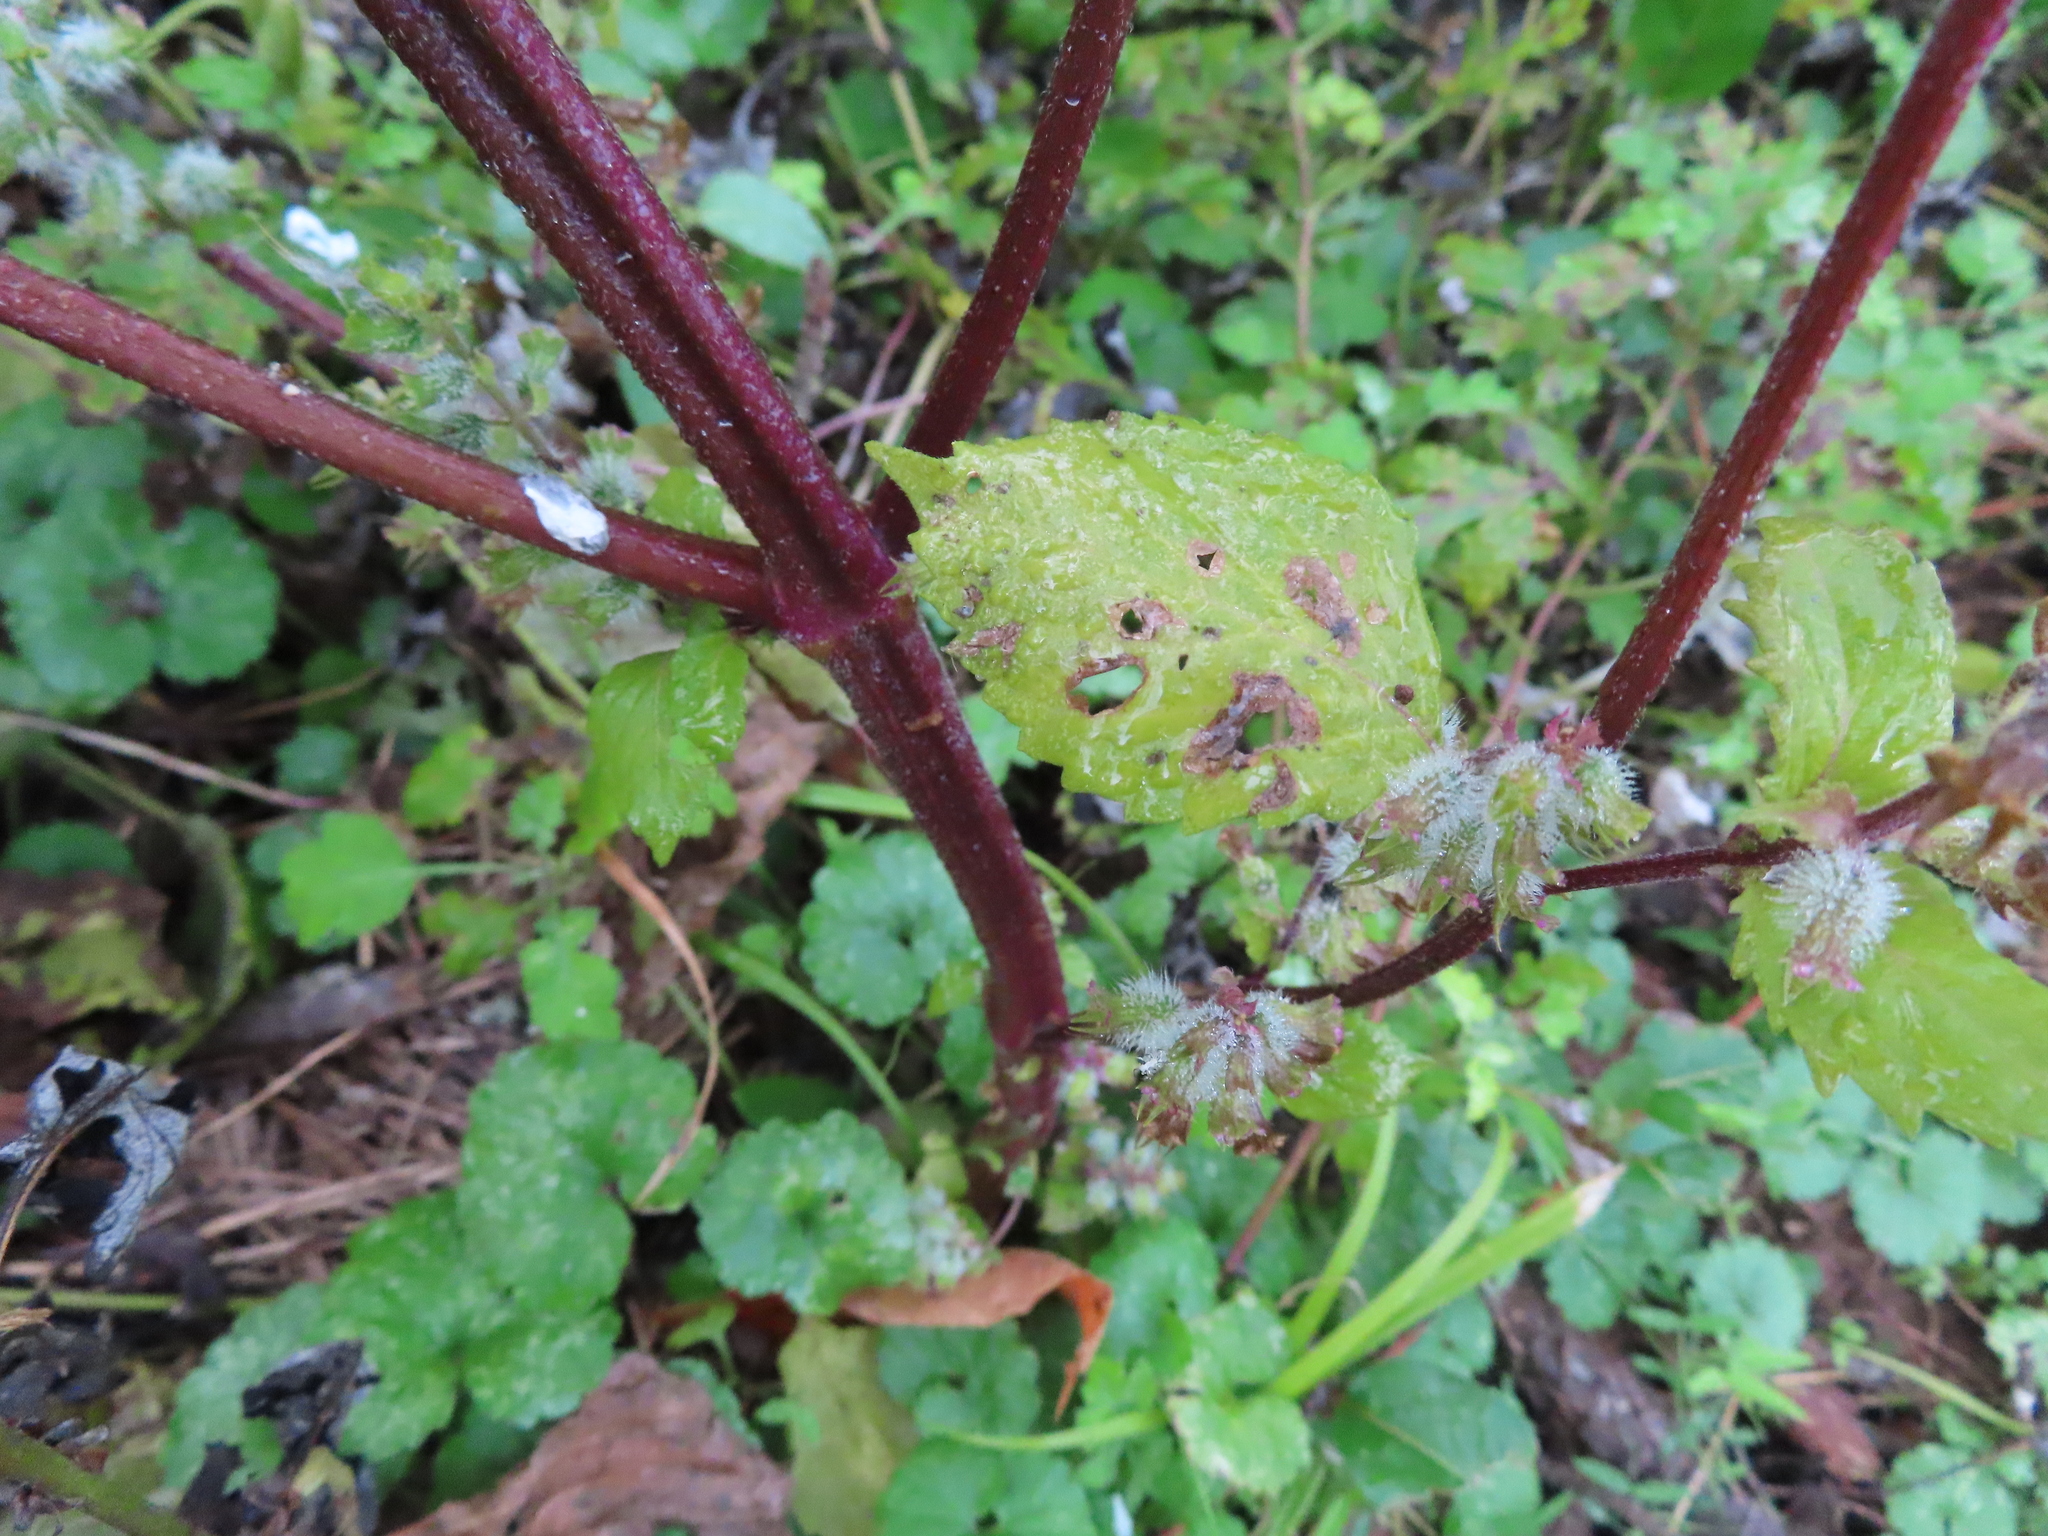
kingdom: Plantae
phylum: Tracheophyta
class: Magnoliopsida
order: Lamiales
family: Lamiaceae
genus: Perilla
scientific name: Perilla frutescens
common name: Perilla
